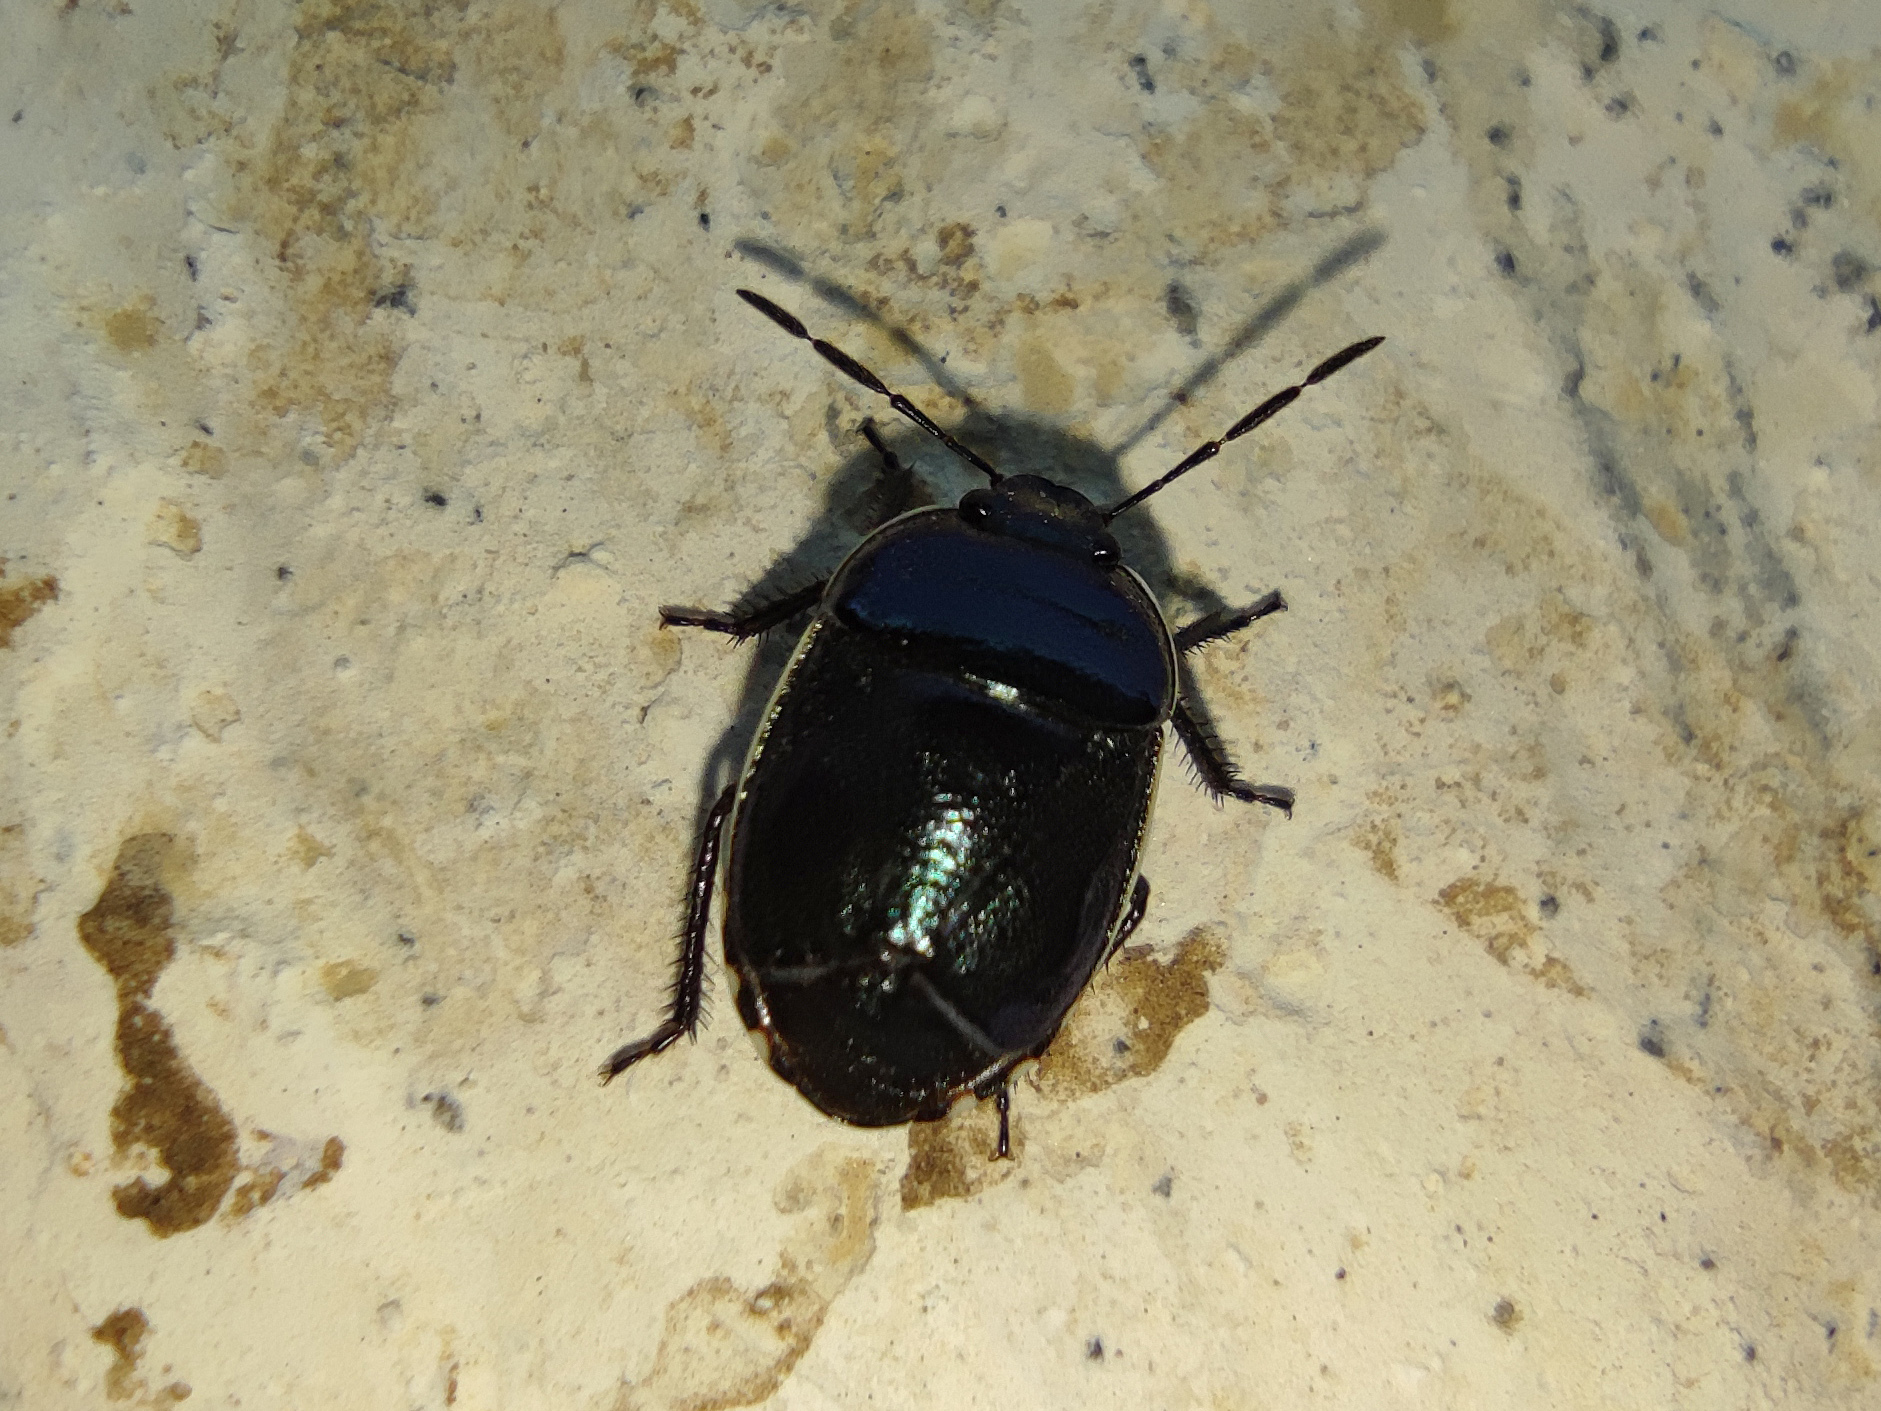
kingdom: Animalia
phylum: Arthropoda
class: Insecta
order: Hemiptera
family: Cydnidae
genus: Canthophorus
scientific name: Canthophorus melanopterus
